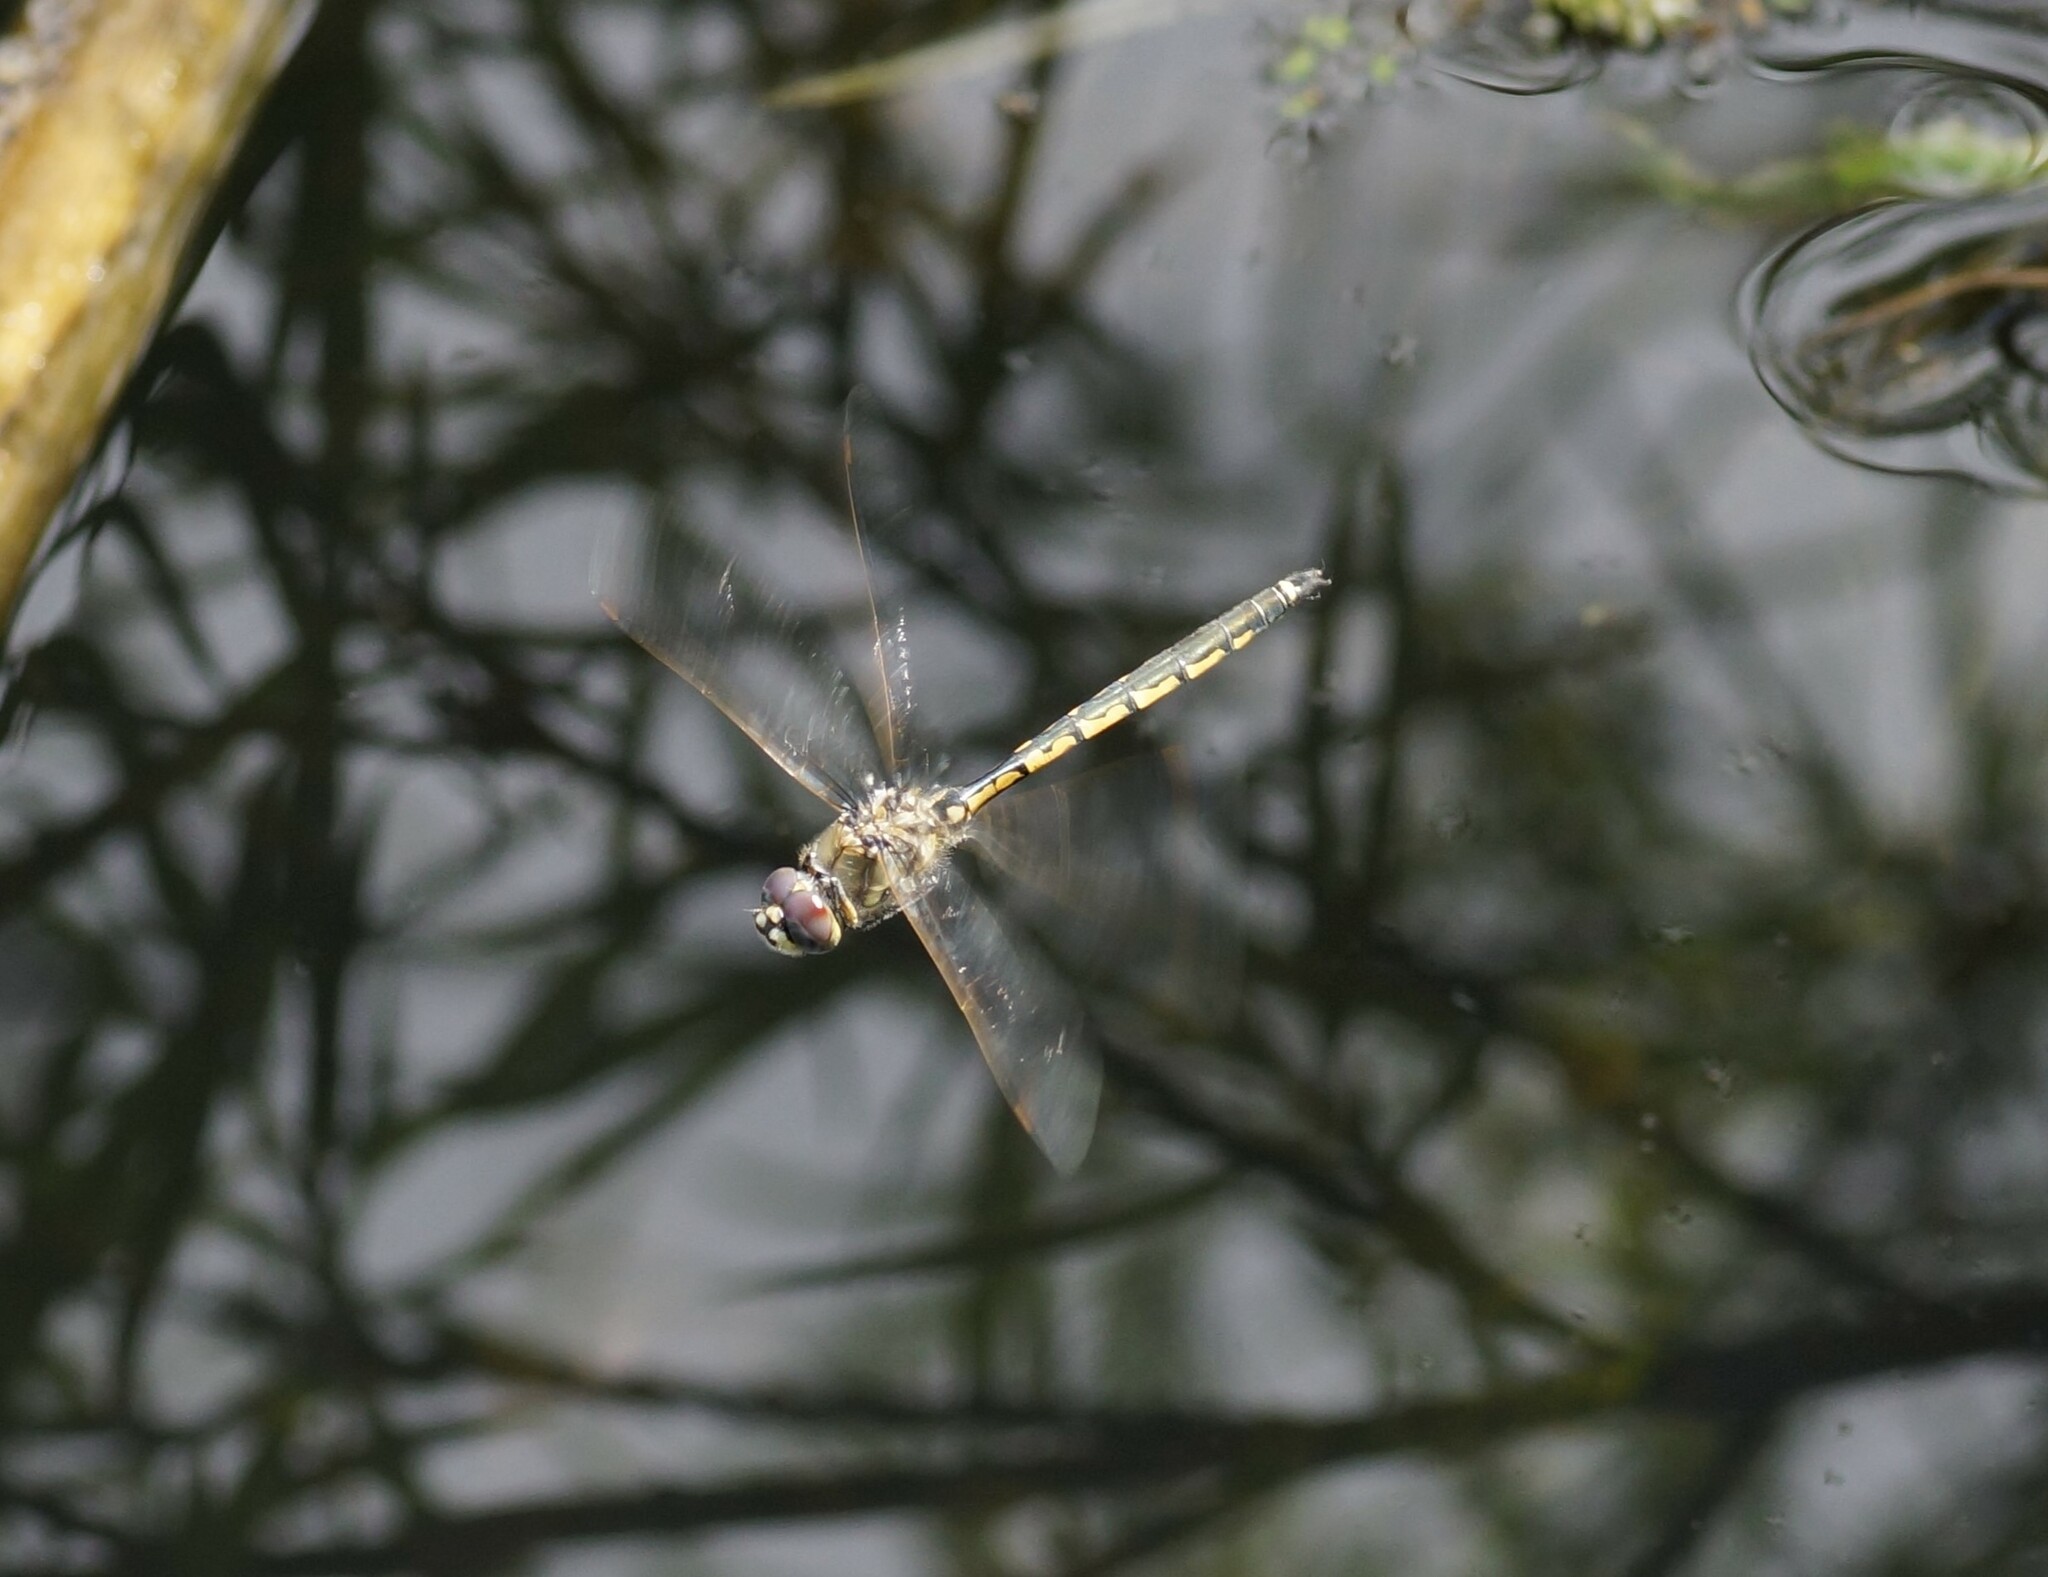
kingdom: Animalia
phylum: Arthropoda
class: Insecta
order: Odonata
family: Corduliidae
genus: Hemicordulia
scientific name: Hemicordulia tau
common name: Tau emerald
